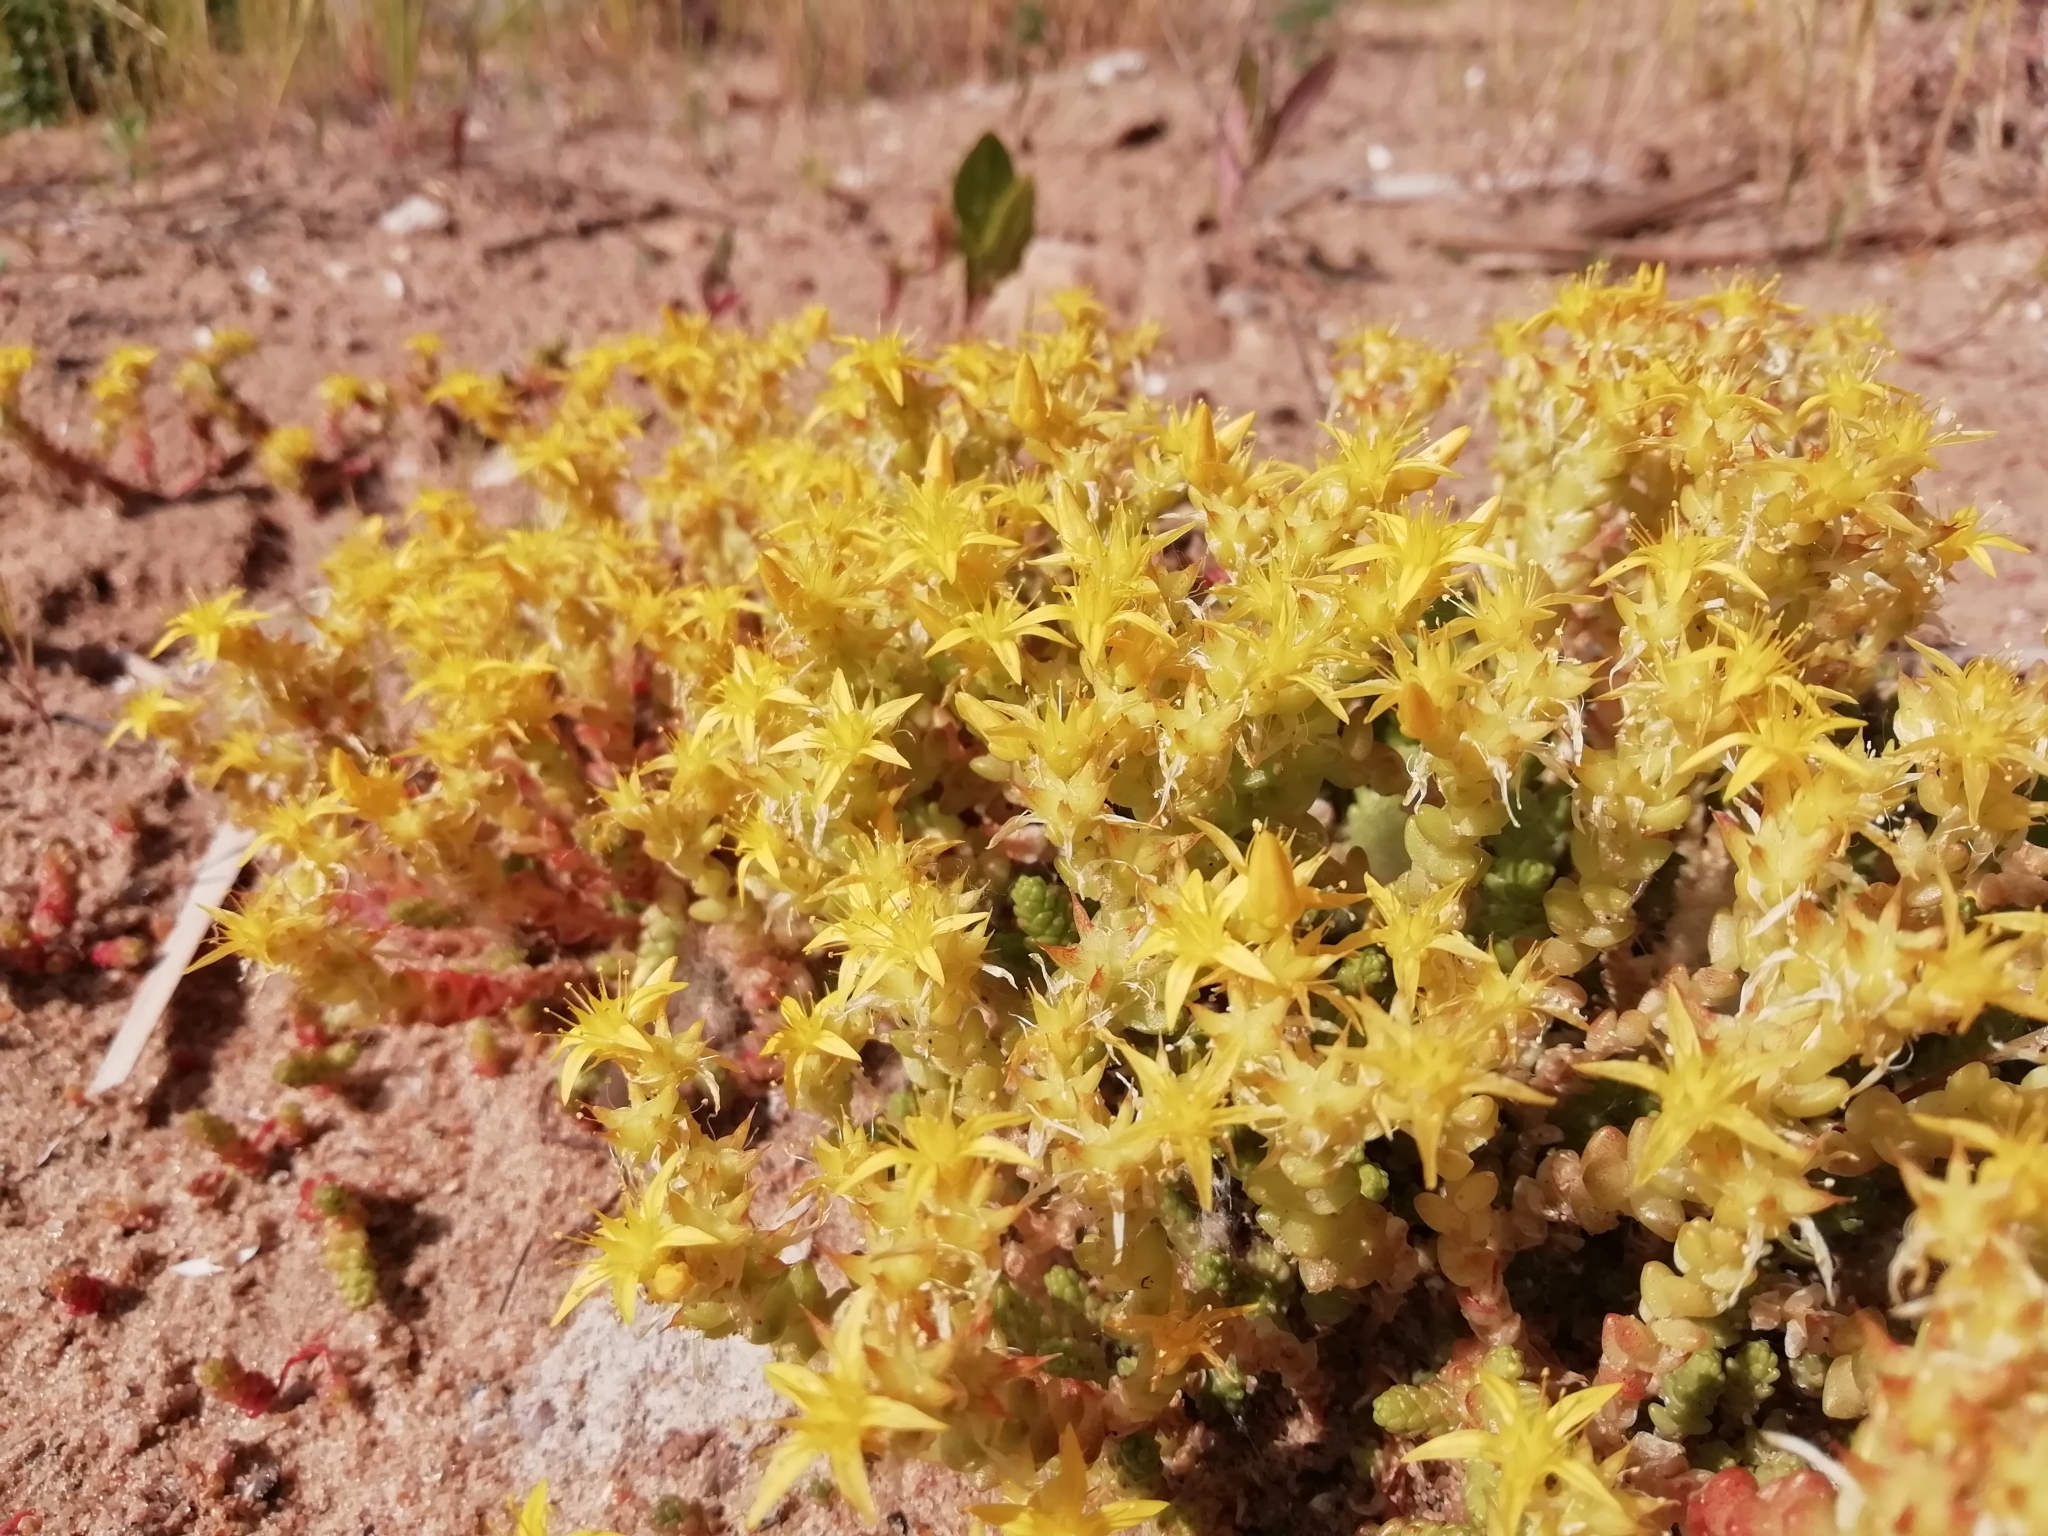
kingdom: Plantae
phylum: Tracheophyta
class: Magnoliopsida
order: Saxifragales
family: Crassulaceae
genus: Sedum
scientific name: Sedum acre
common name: Biting stonecrop
